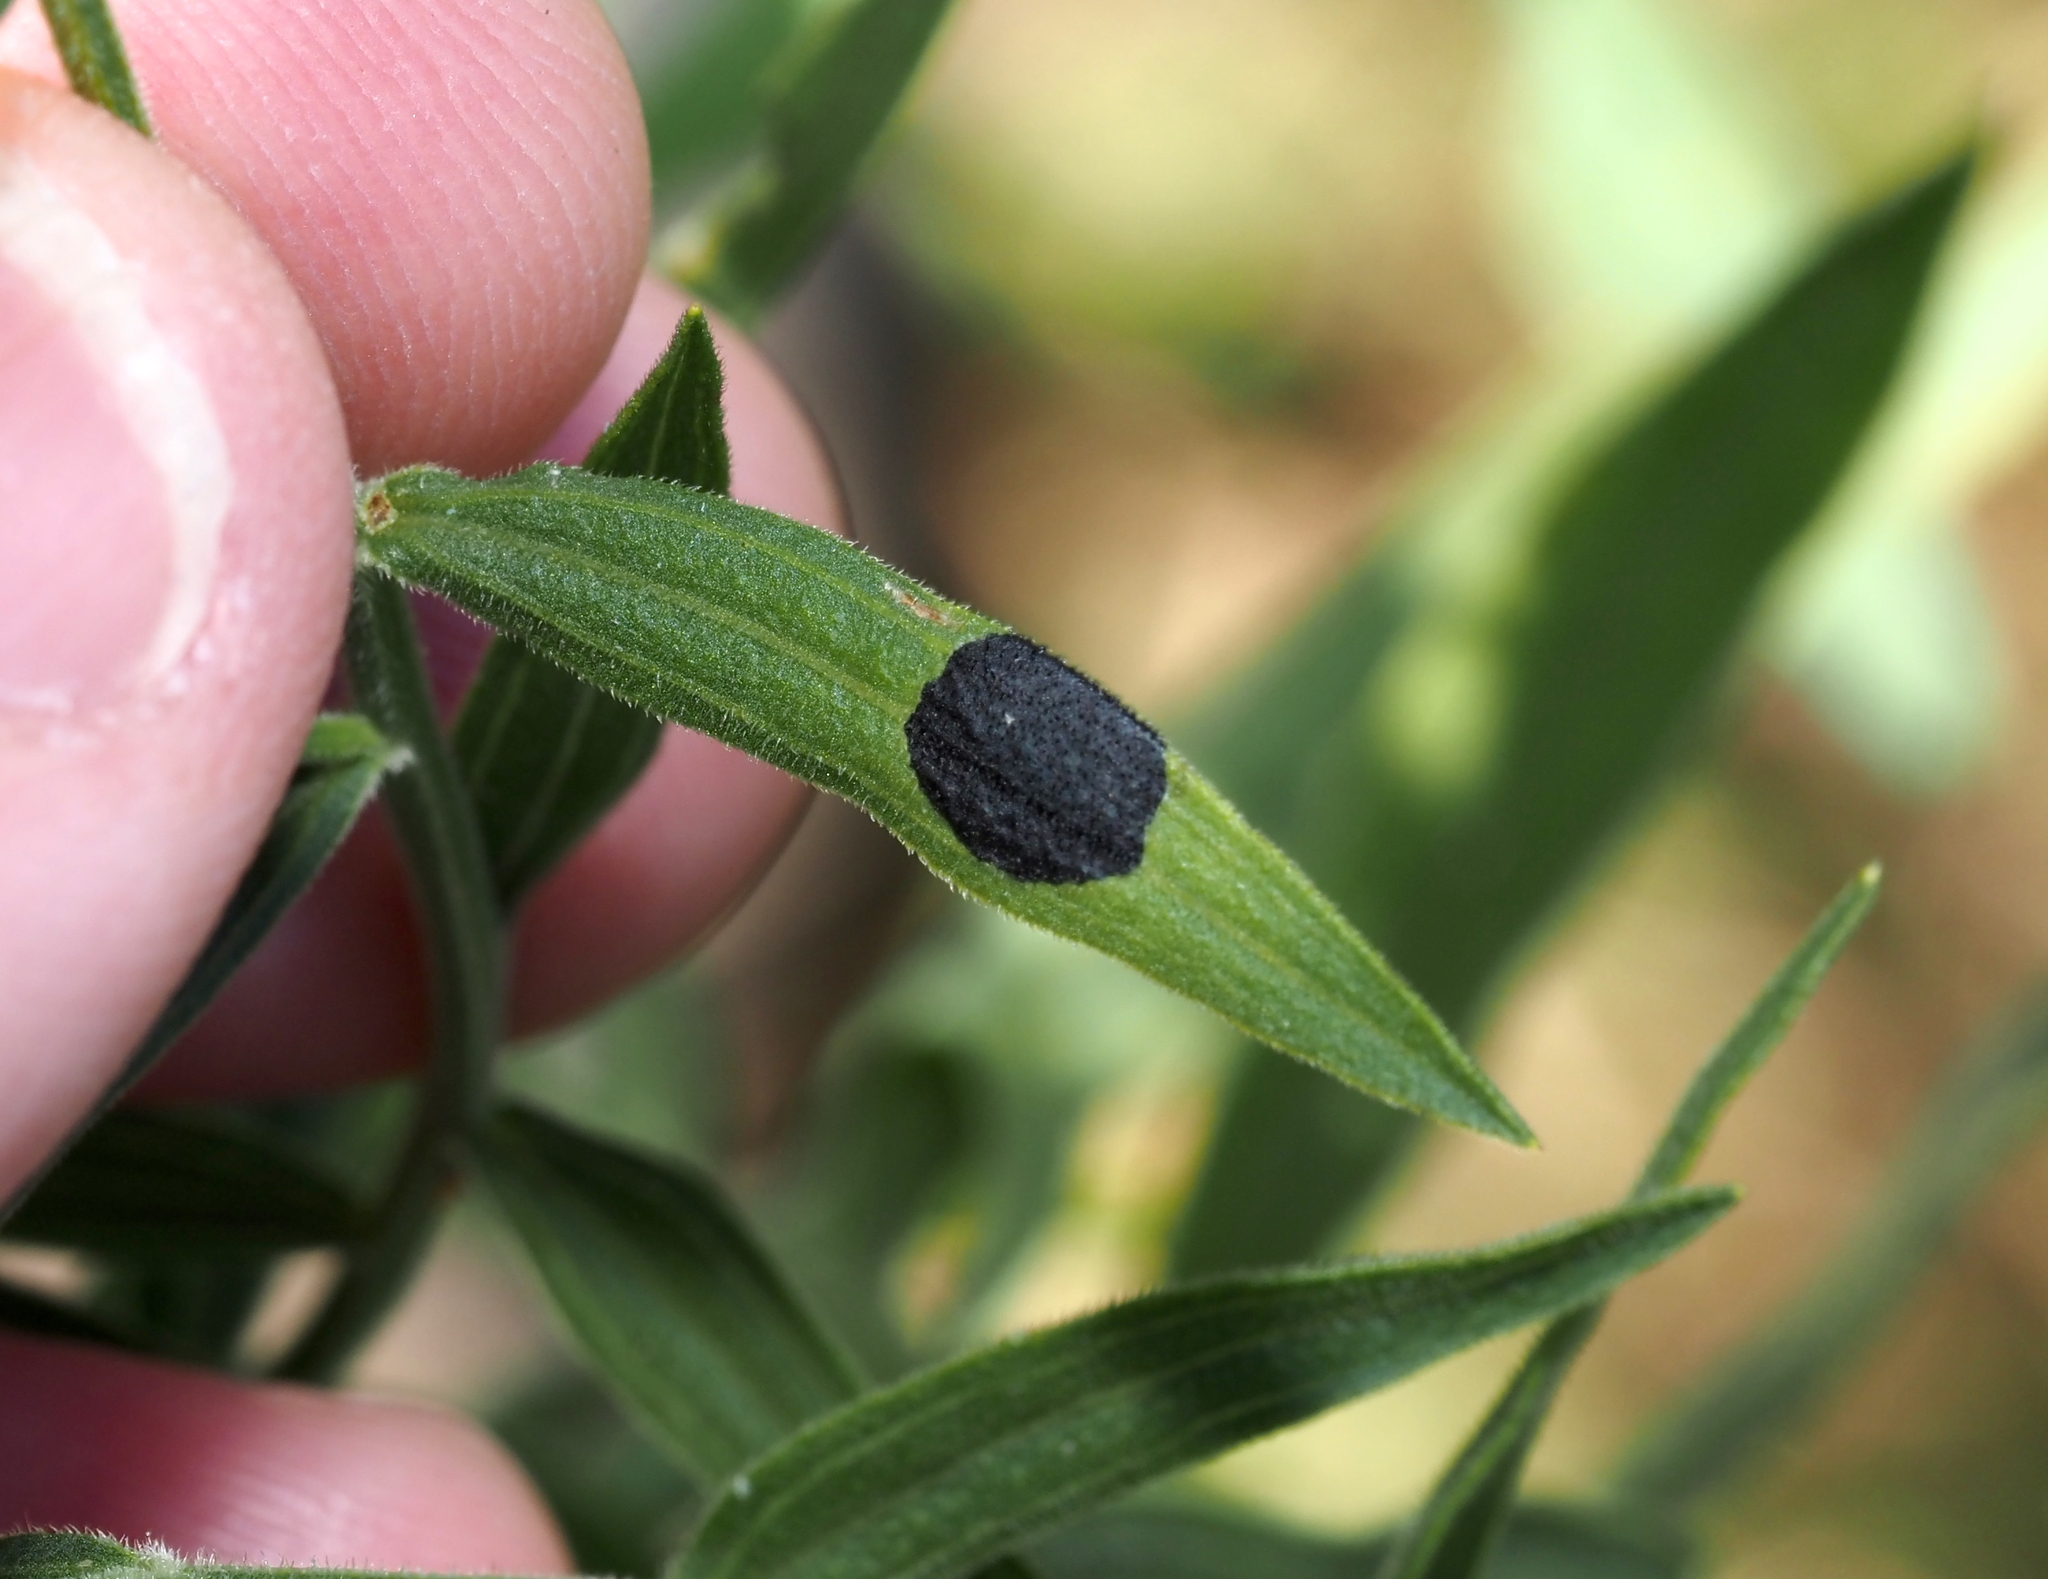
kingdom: Animalia
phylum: Arthropoda
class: Insecta
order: Diptera
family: Cecidomyiidae
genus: Asteromyia
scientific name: Asteromyia euthamiae
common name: Euthamia leaf gall midge
